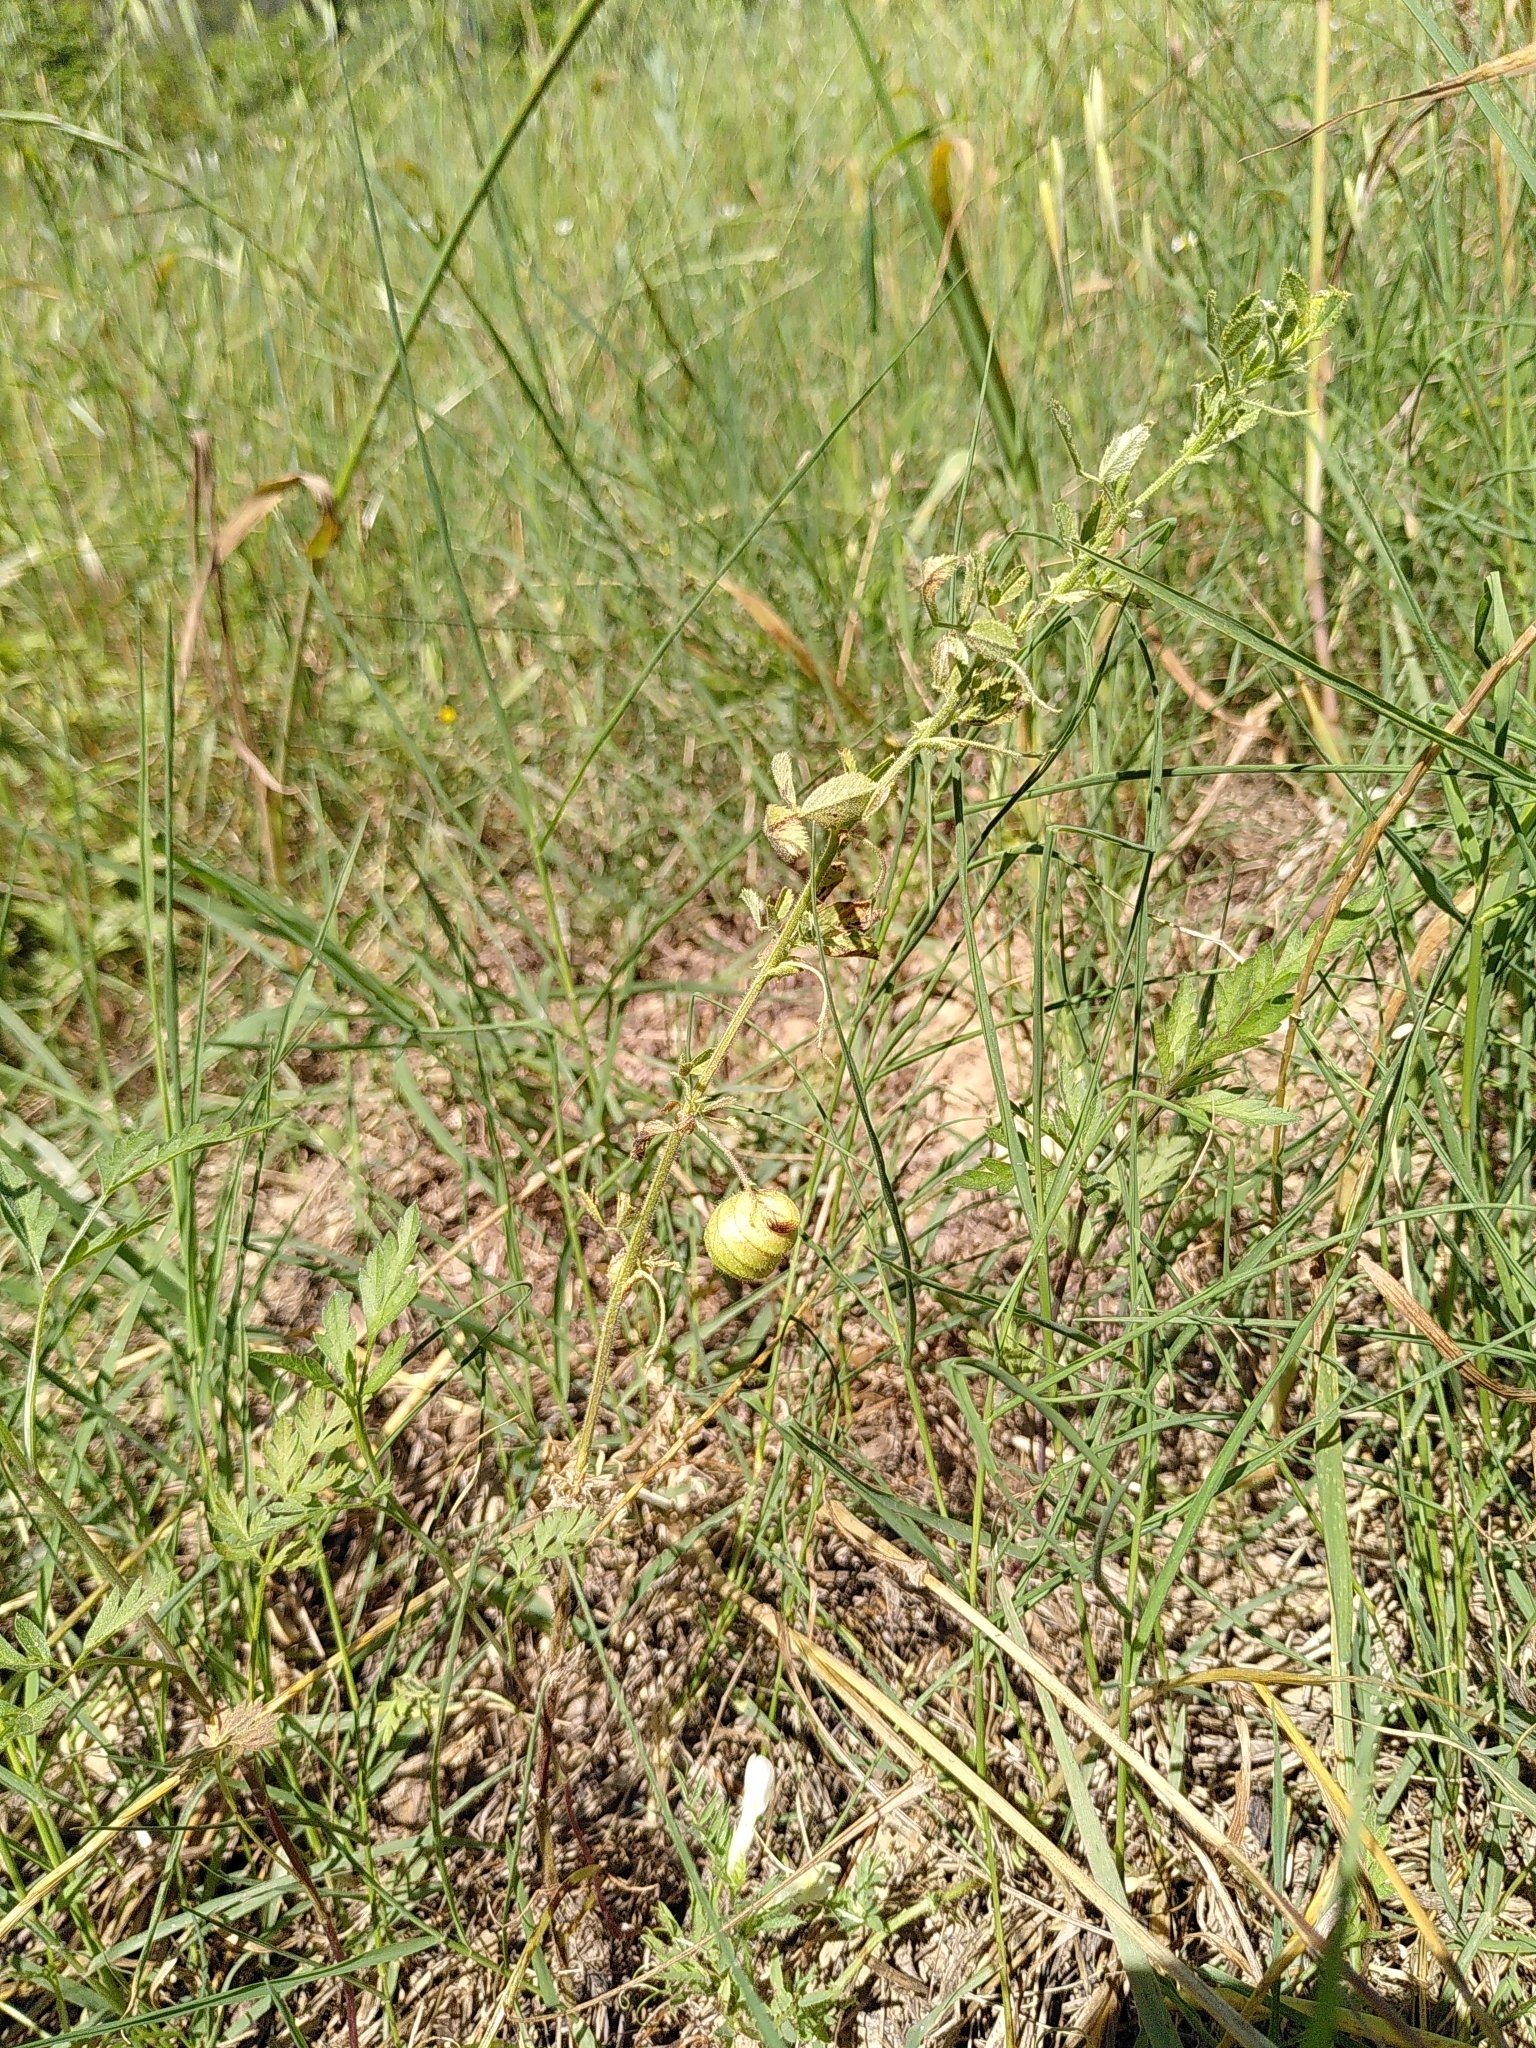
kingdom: Plantae
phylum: Tracheophyta
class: Magnoliopsida
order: Fabales
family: Fabaceae
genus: Medicago
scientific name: Medicago scutellata
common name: Snail medick
